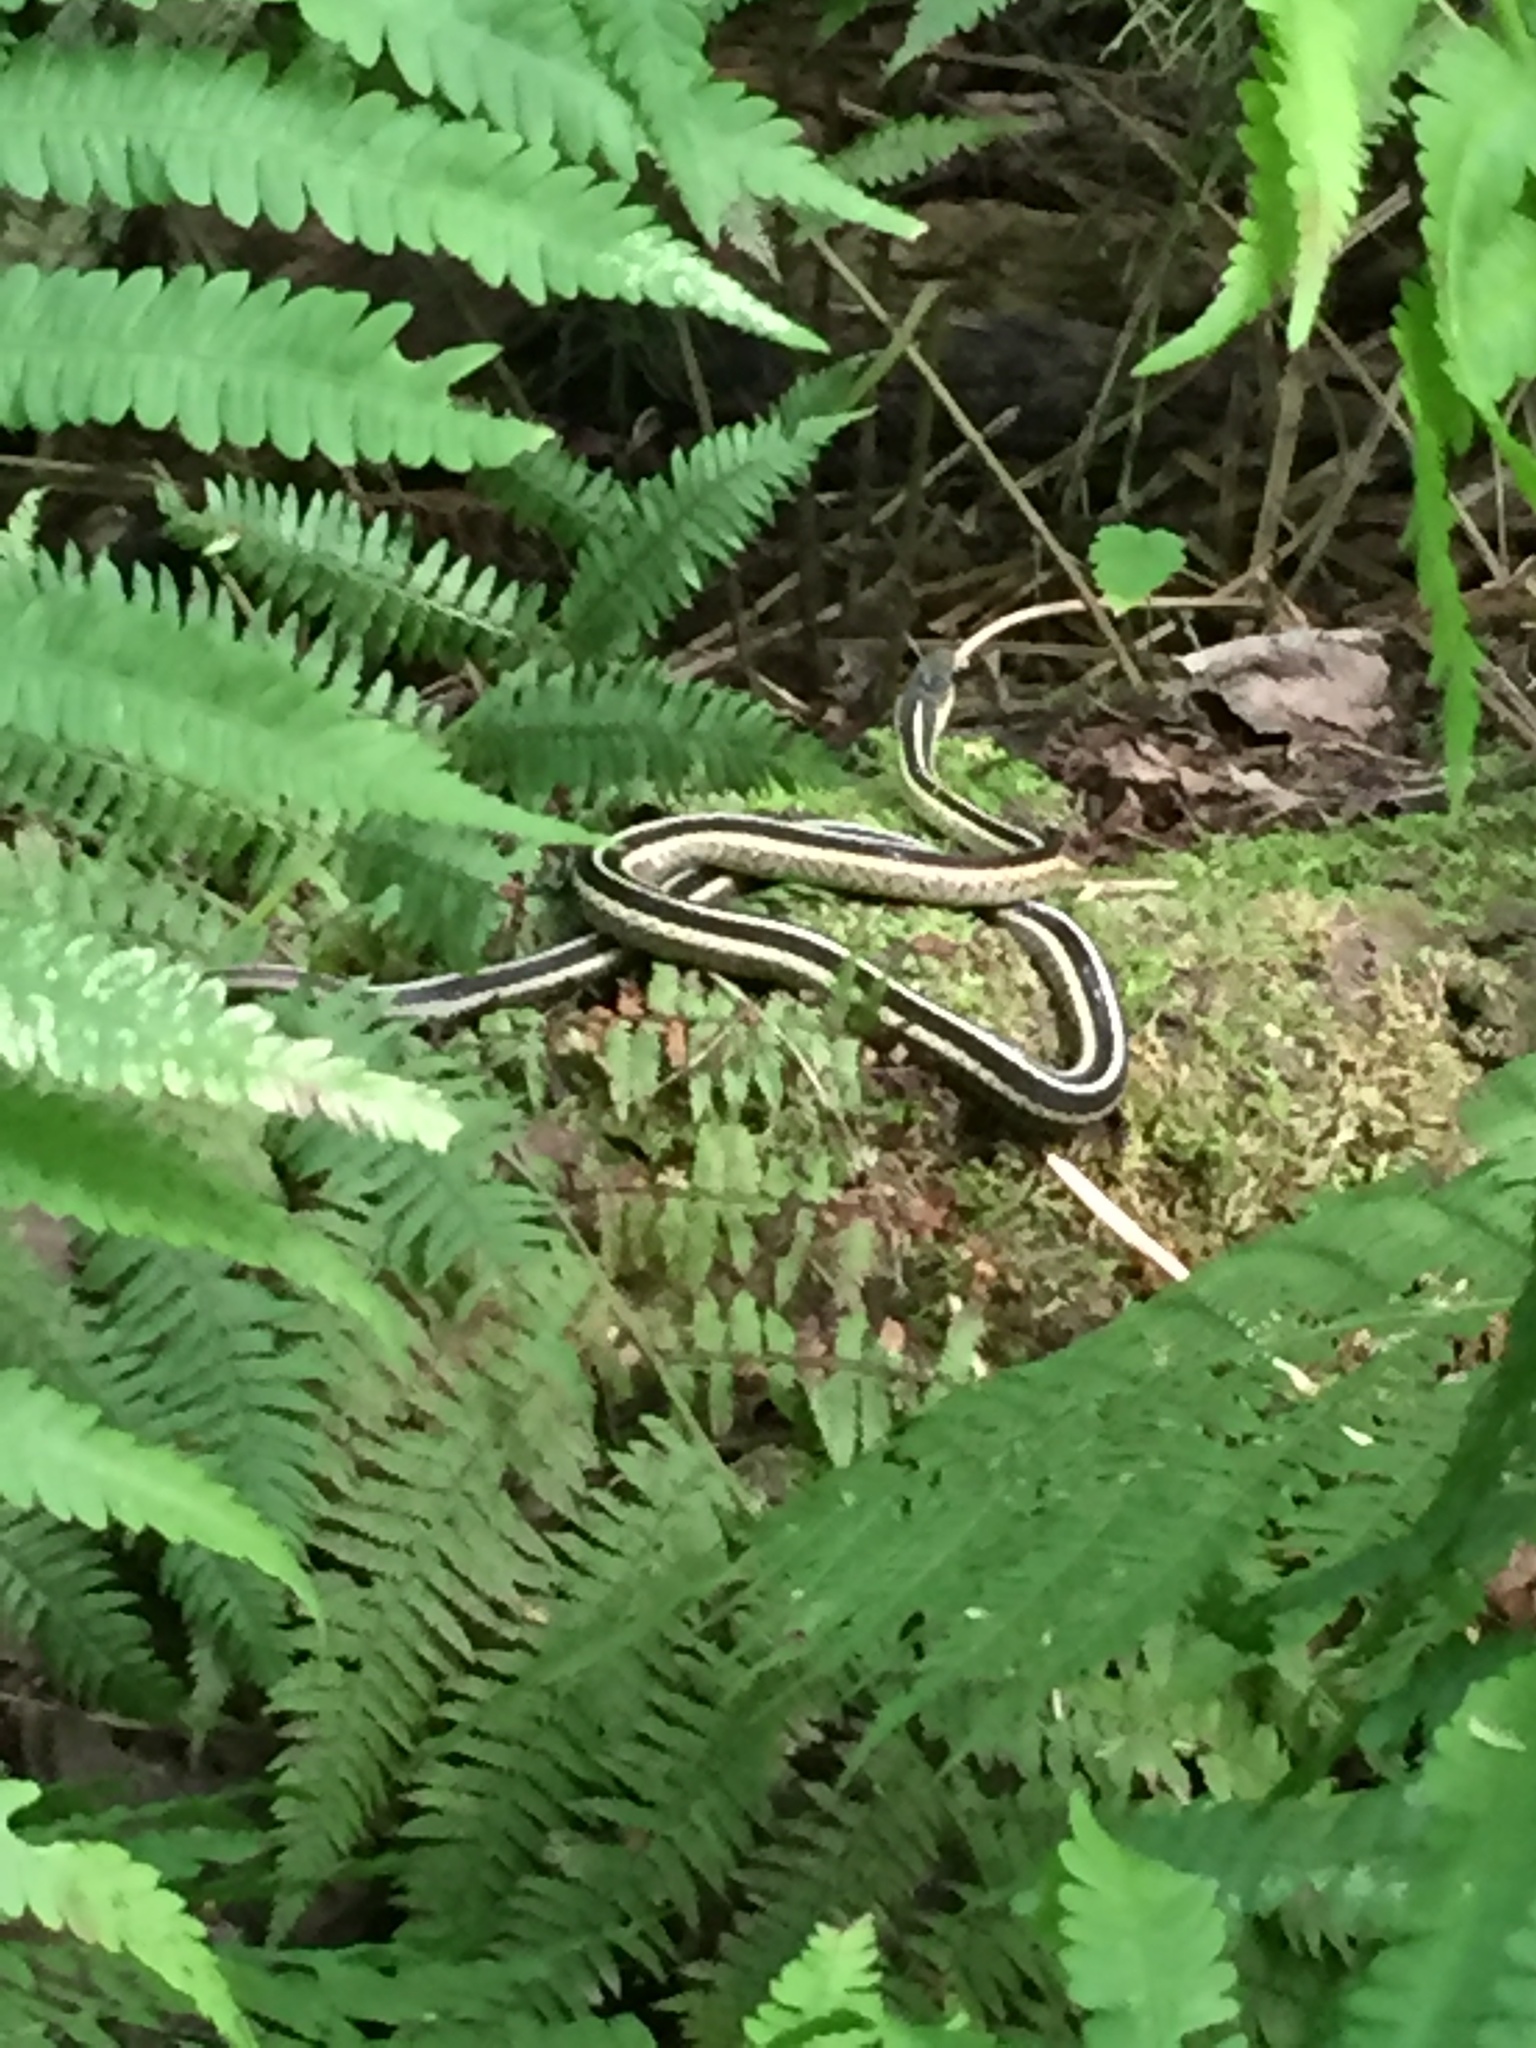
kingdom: Animalia
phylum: Chordata
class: Squamata
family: Colubridae
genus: Thamnophis
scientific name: Thamnophis sirtalis
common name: Common garter snake
